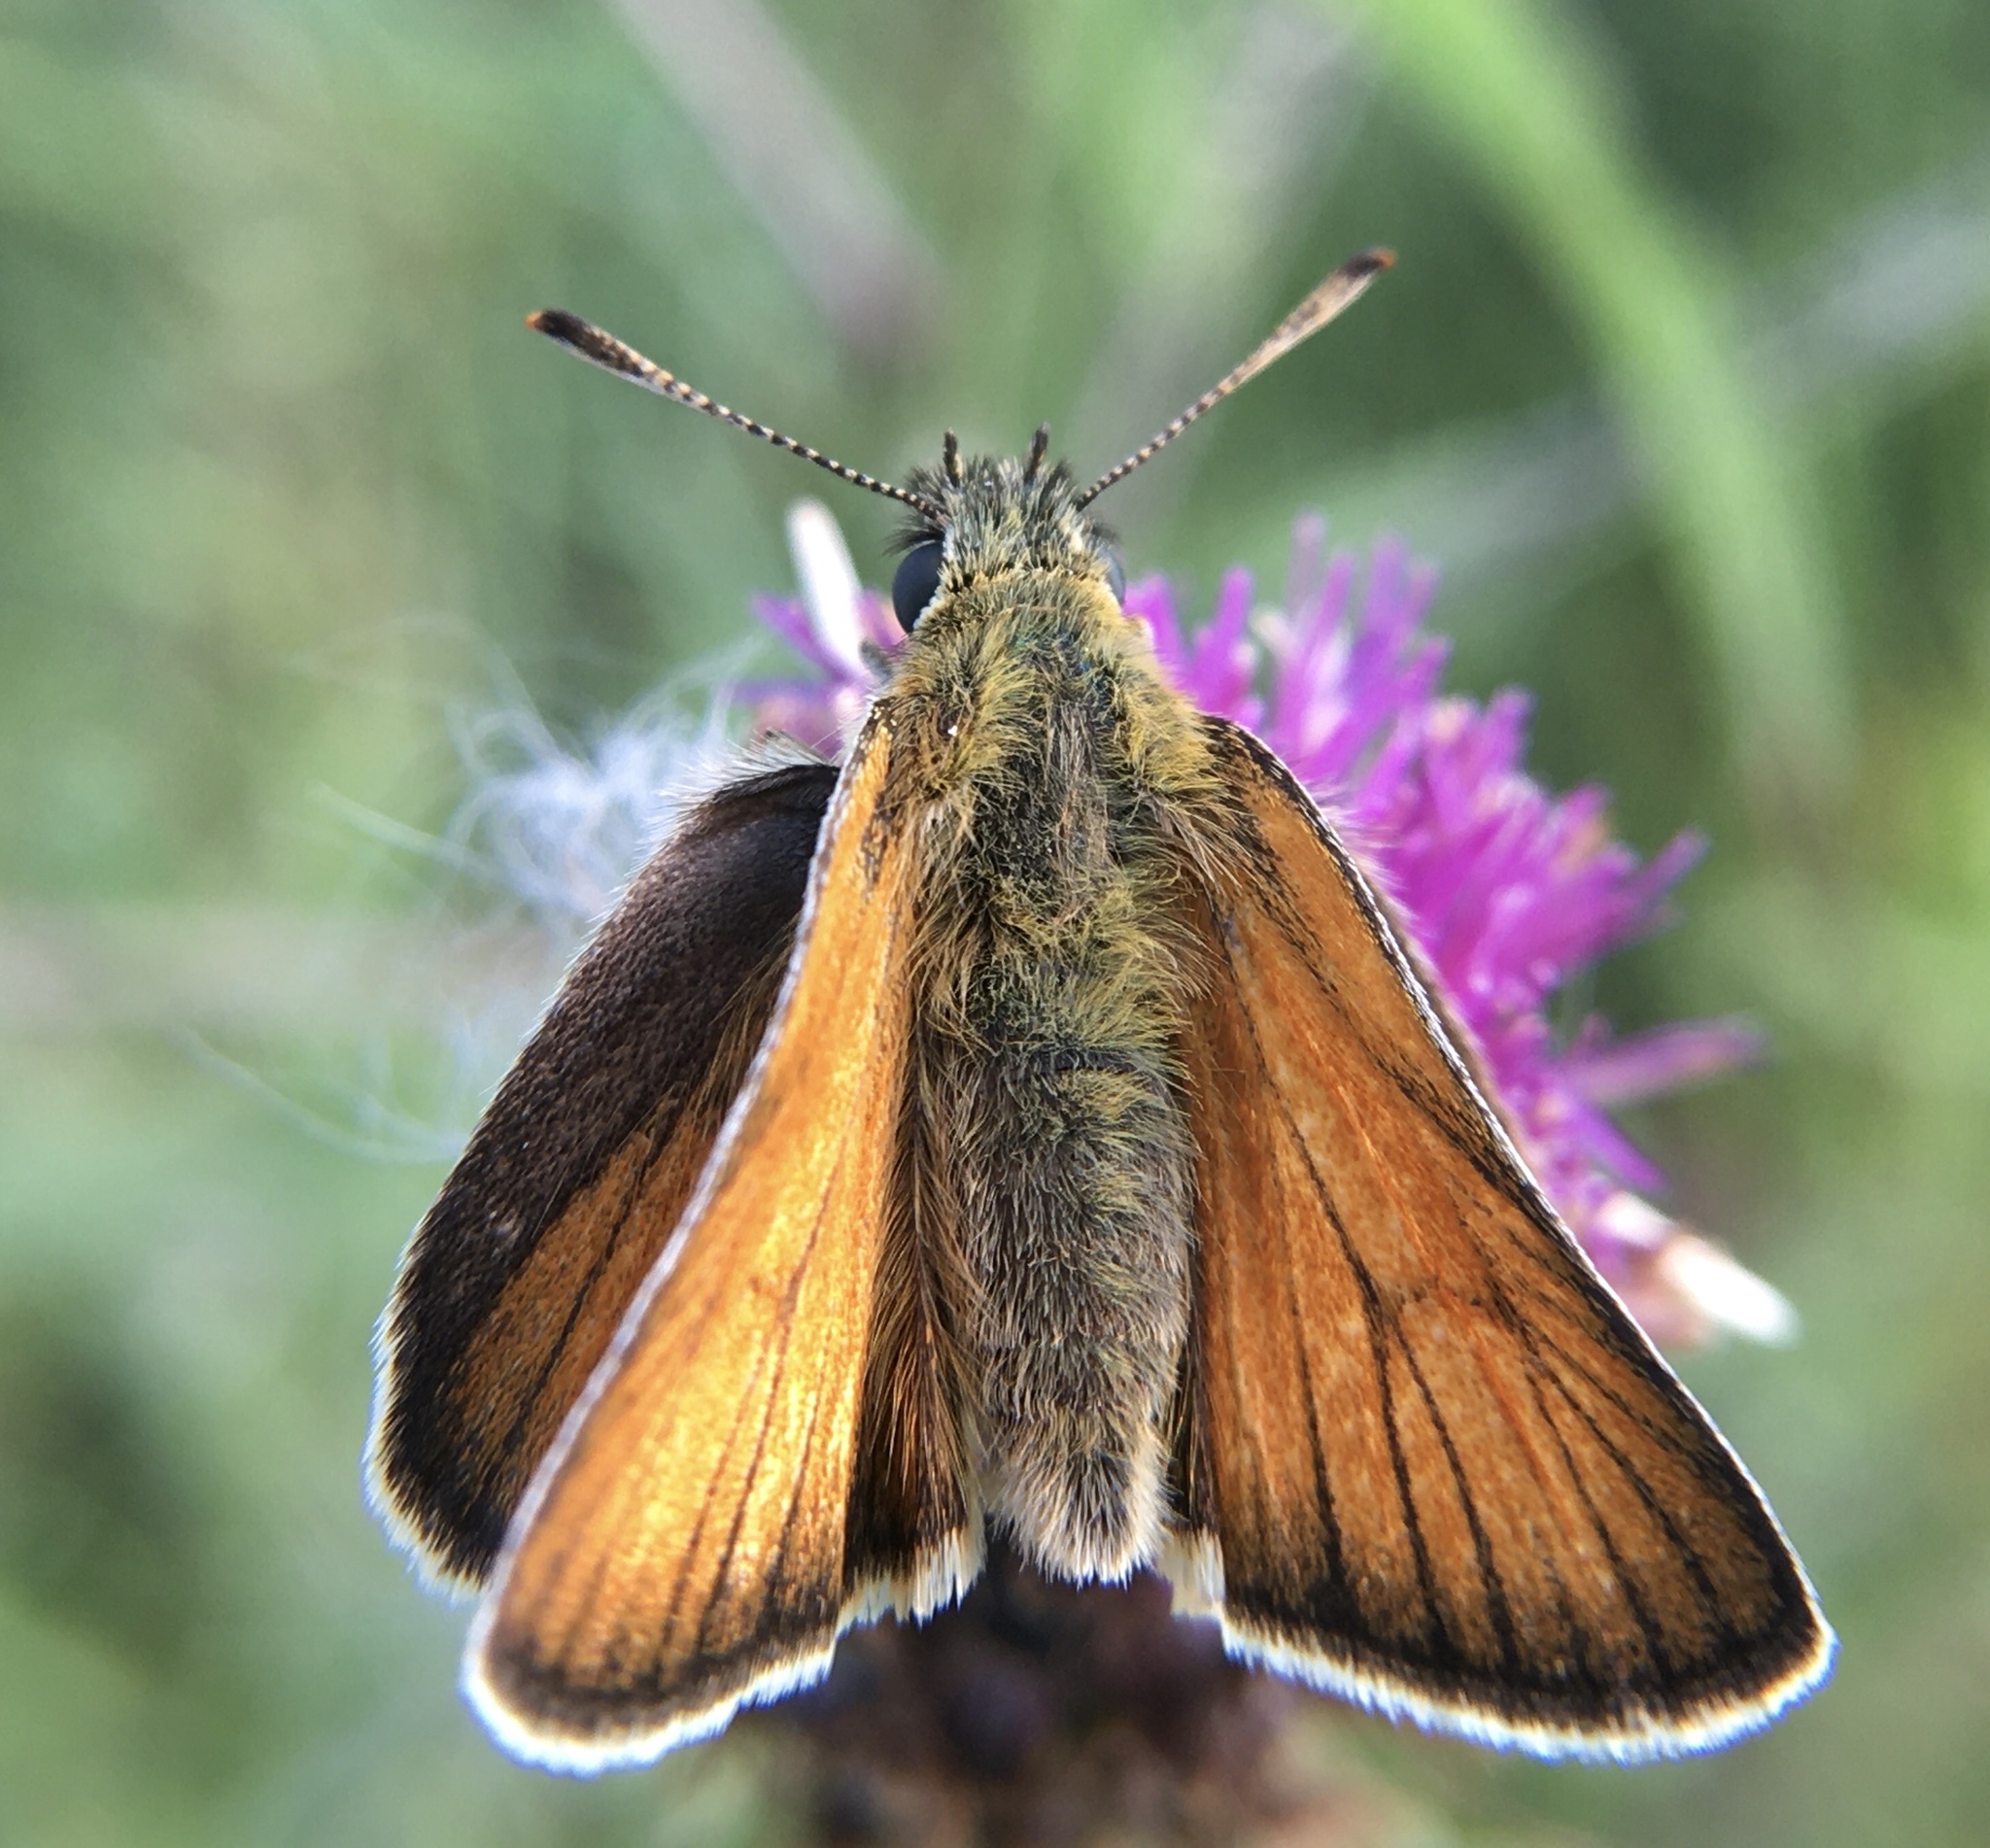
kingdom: Animalia
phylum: Arthropoda
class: Insecta
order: Lepidoptera
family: Hesperiidae
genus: Thymelicus
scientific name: Thymelicus sylvestris
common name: Small skipper
